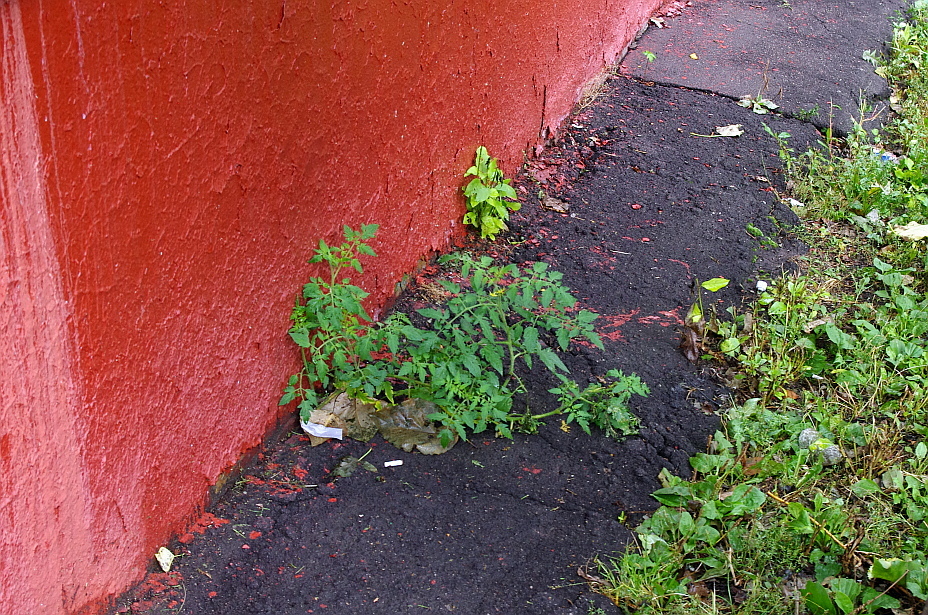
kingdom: Plantae
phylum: Tracheophyta
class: Magnoliopsida
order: Solanales
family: Solanaceae
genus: Solanum
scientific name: Solanum lycopersicum
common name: Garden tomato
